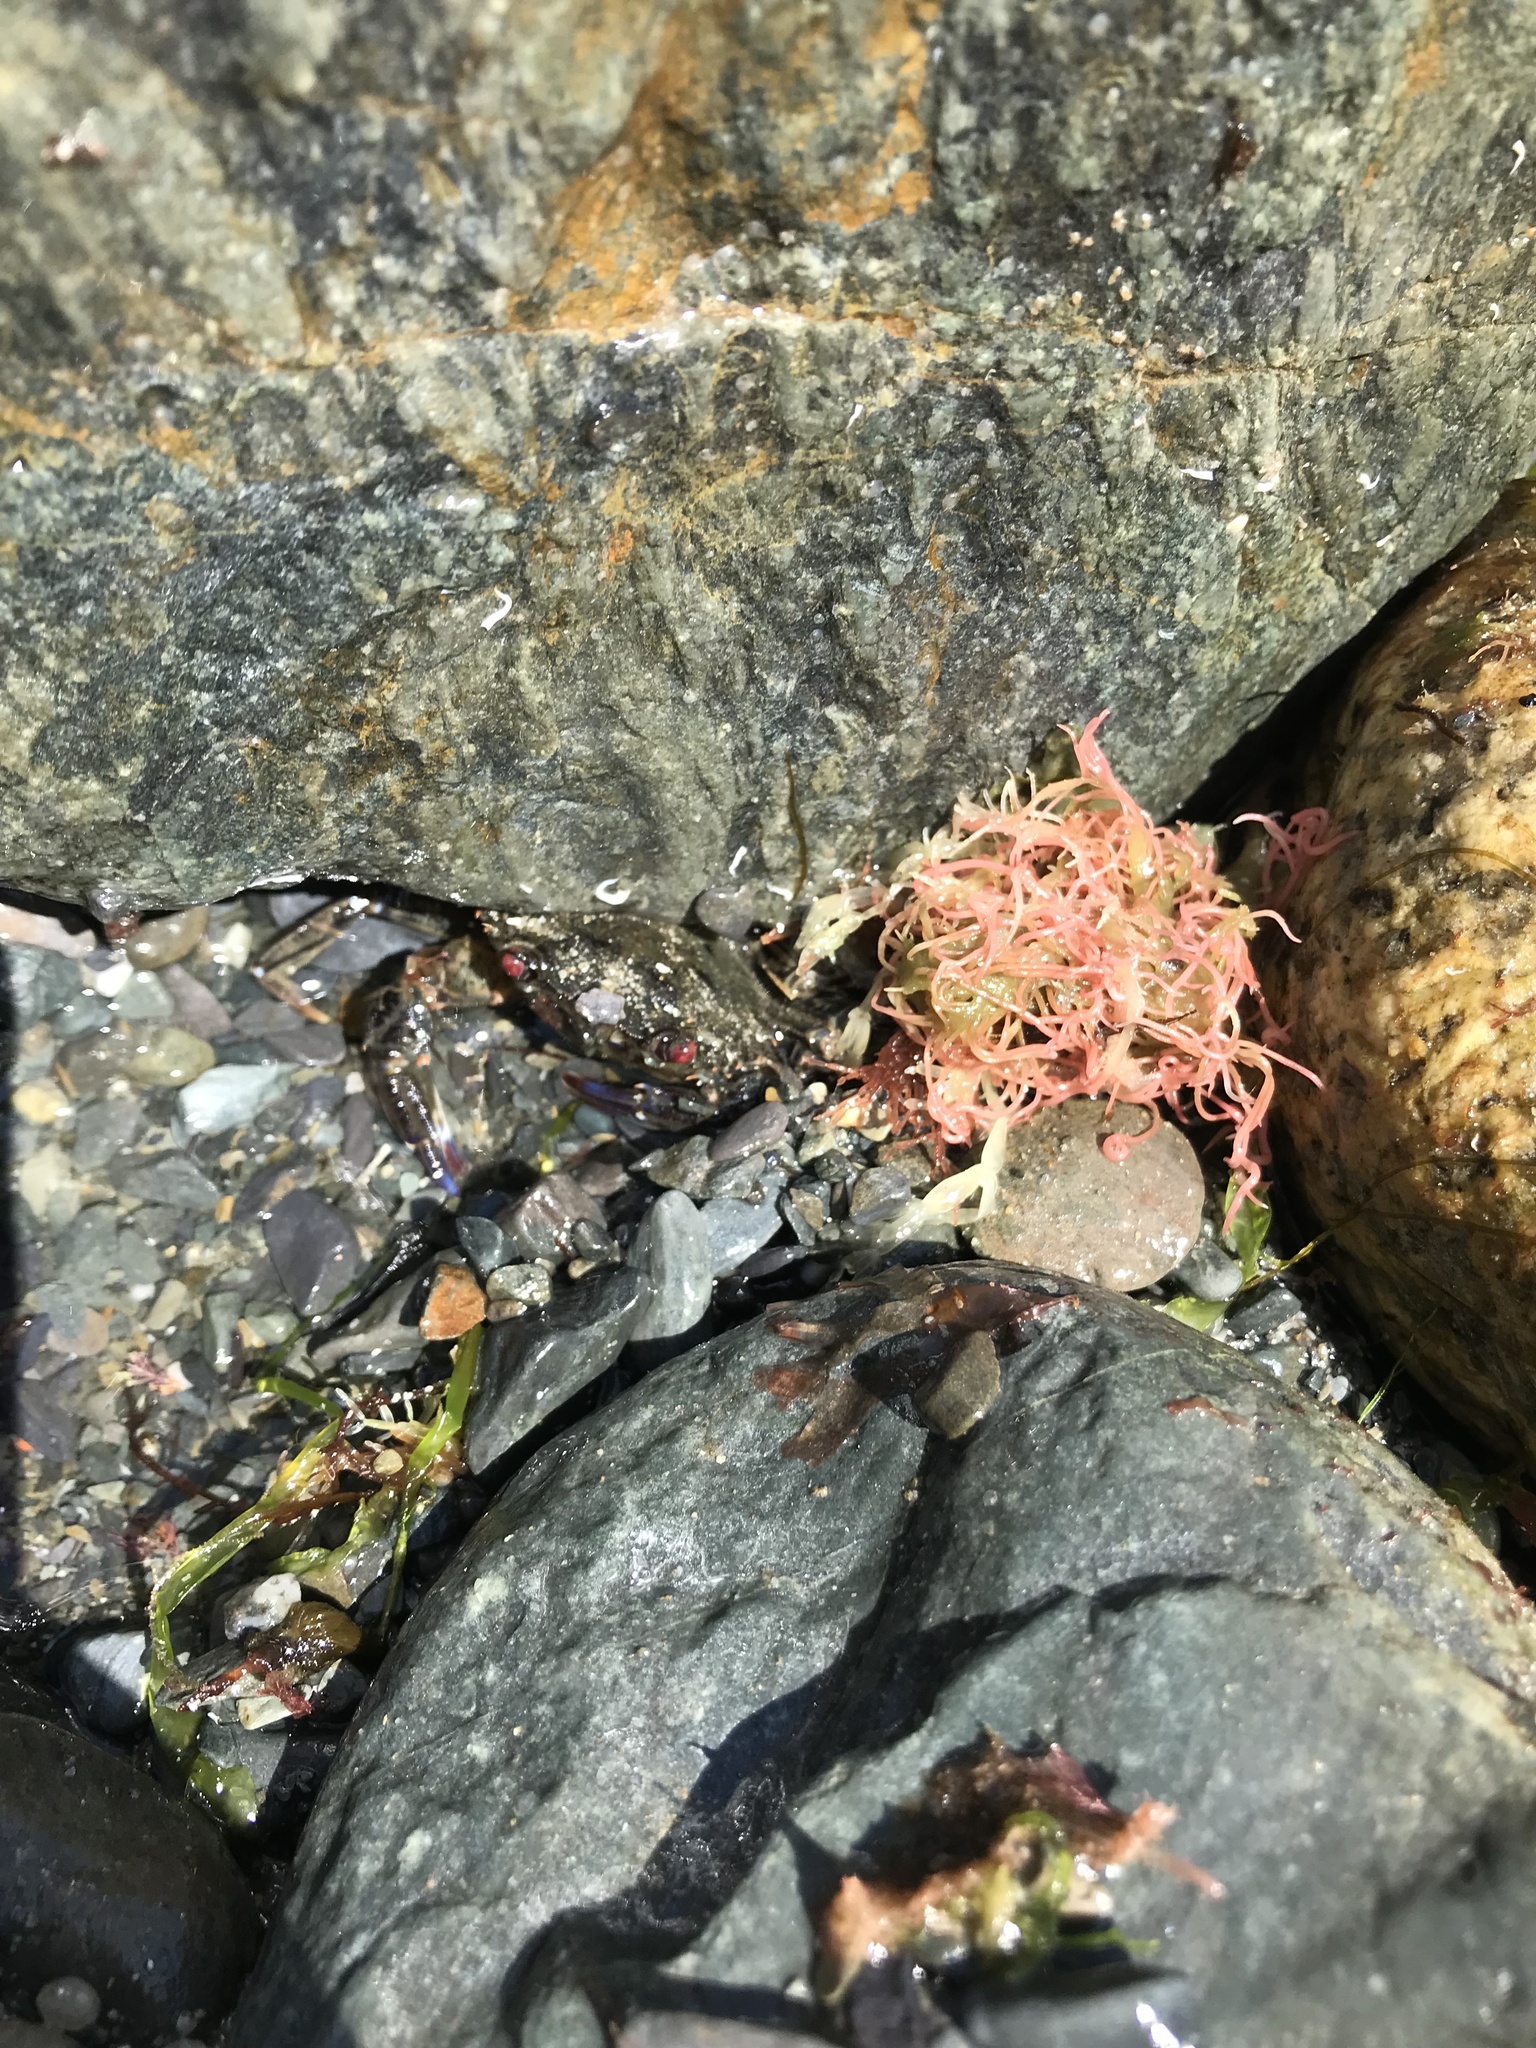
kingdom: Animalia
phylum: Arthropoda
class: Malacostraca
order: Decapoda
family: Polybiidae
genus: Necora
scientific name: Necora puber
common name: Velvet swimming crab
